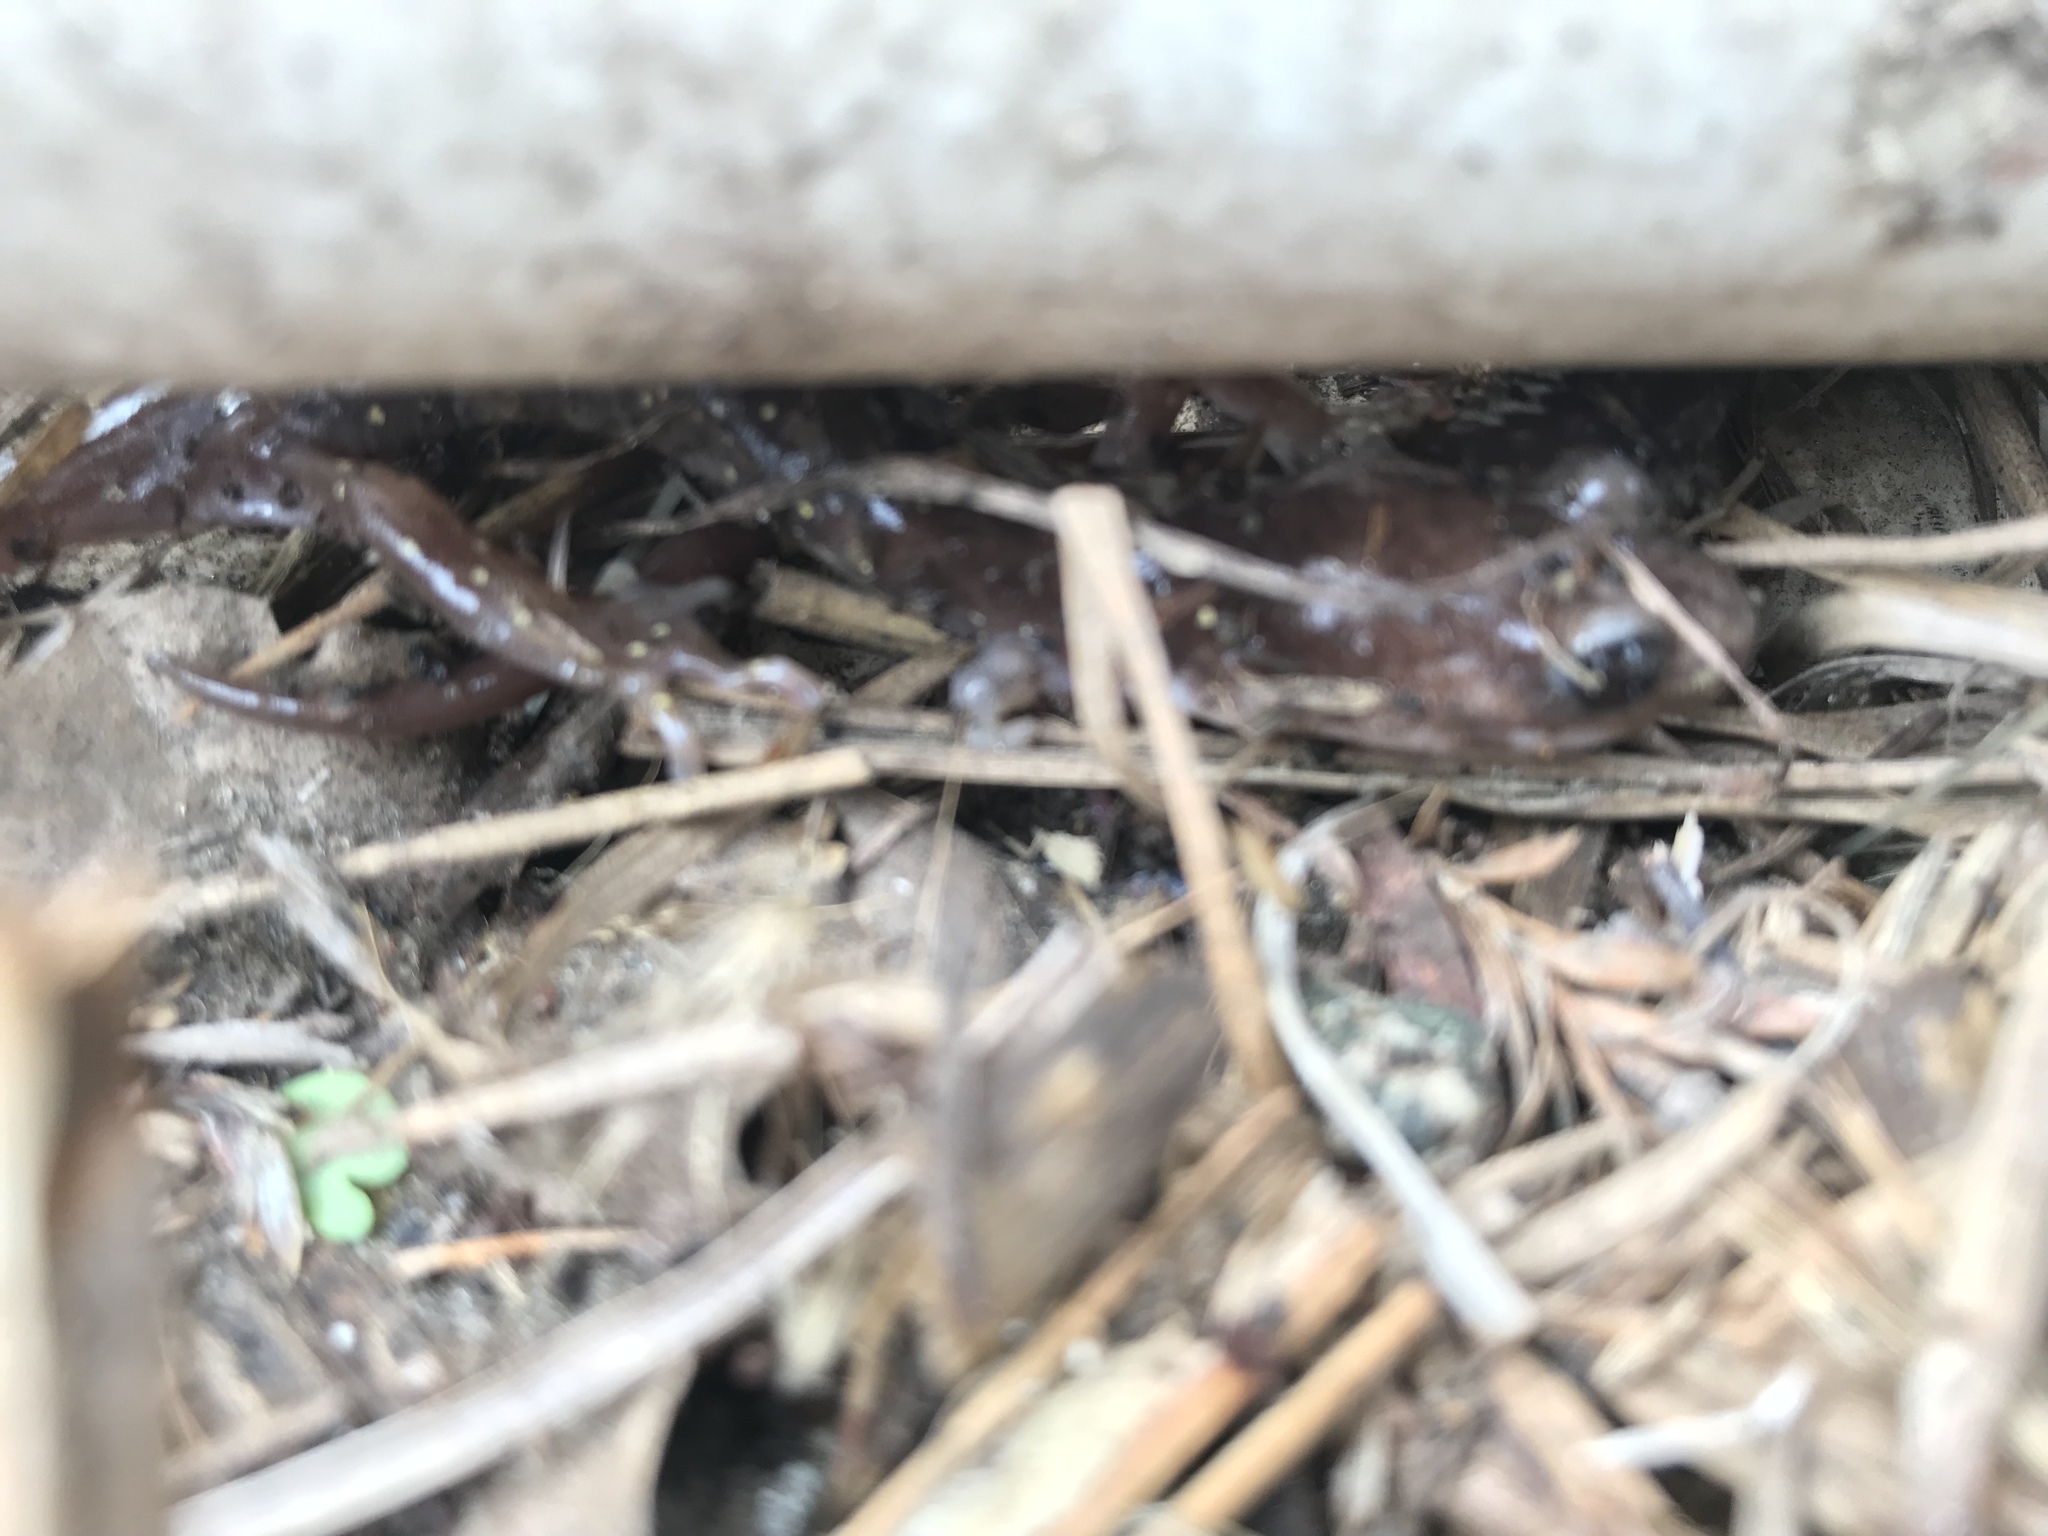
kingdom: Animalia
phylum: Chordata
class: Amphibia
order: Caudata
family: Plethodontidae
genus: Aneides
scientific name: Aneides lugubris
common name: Arboreal salamander
